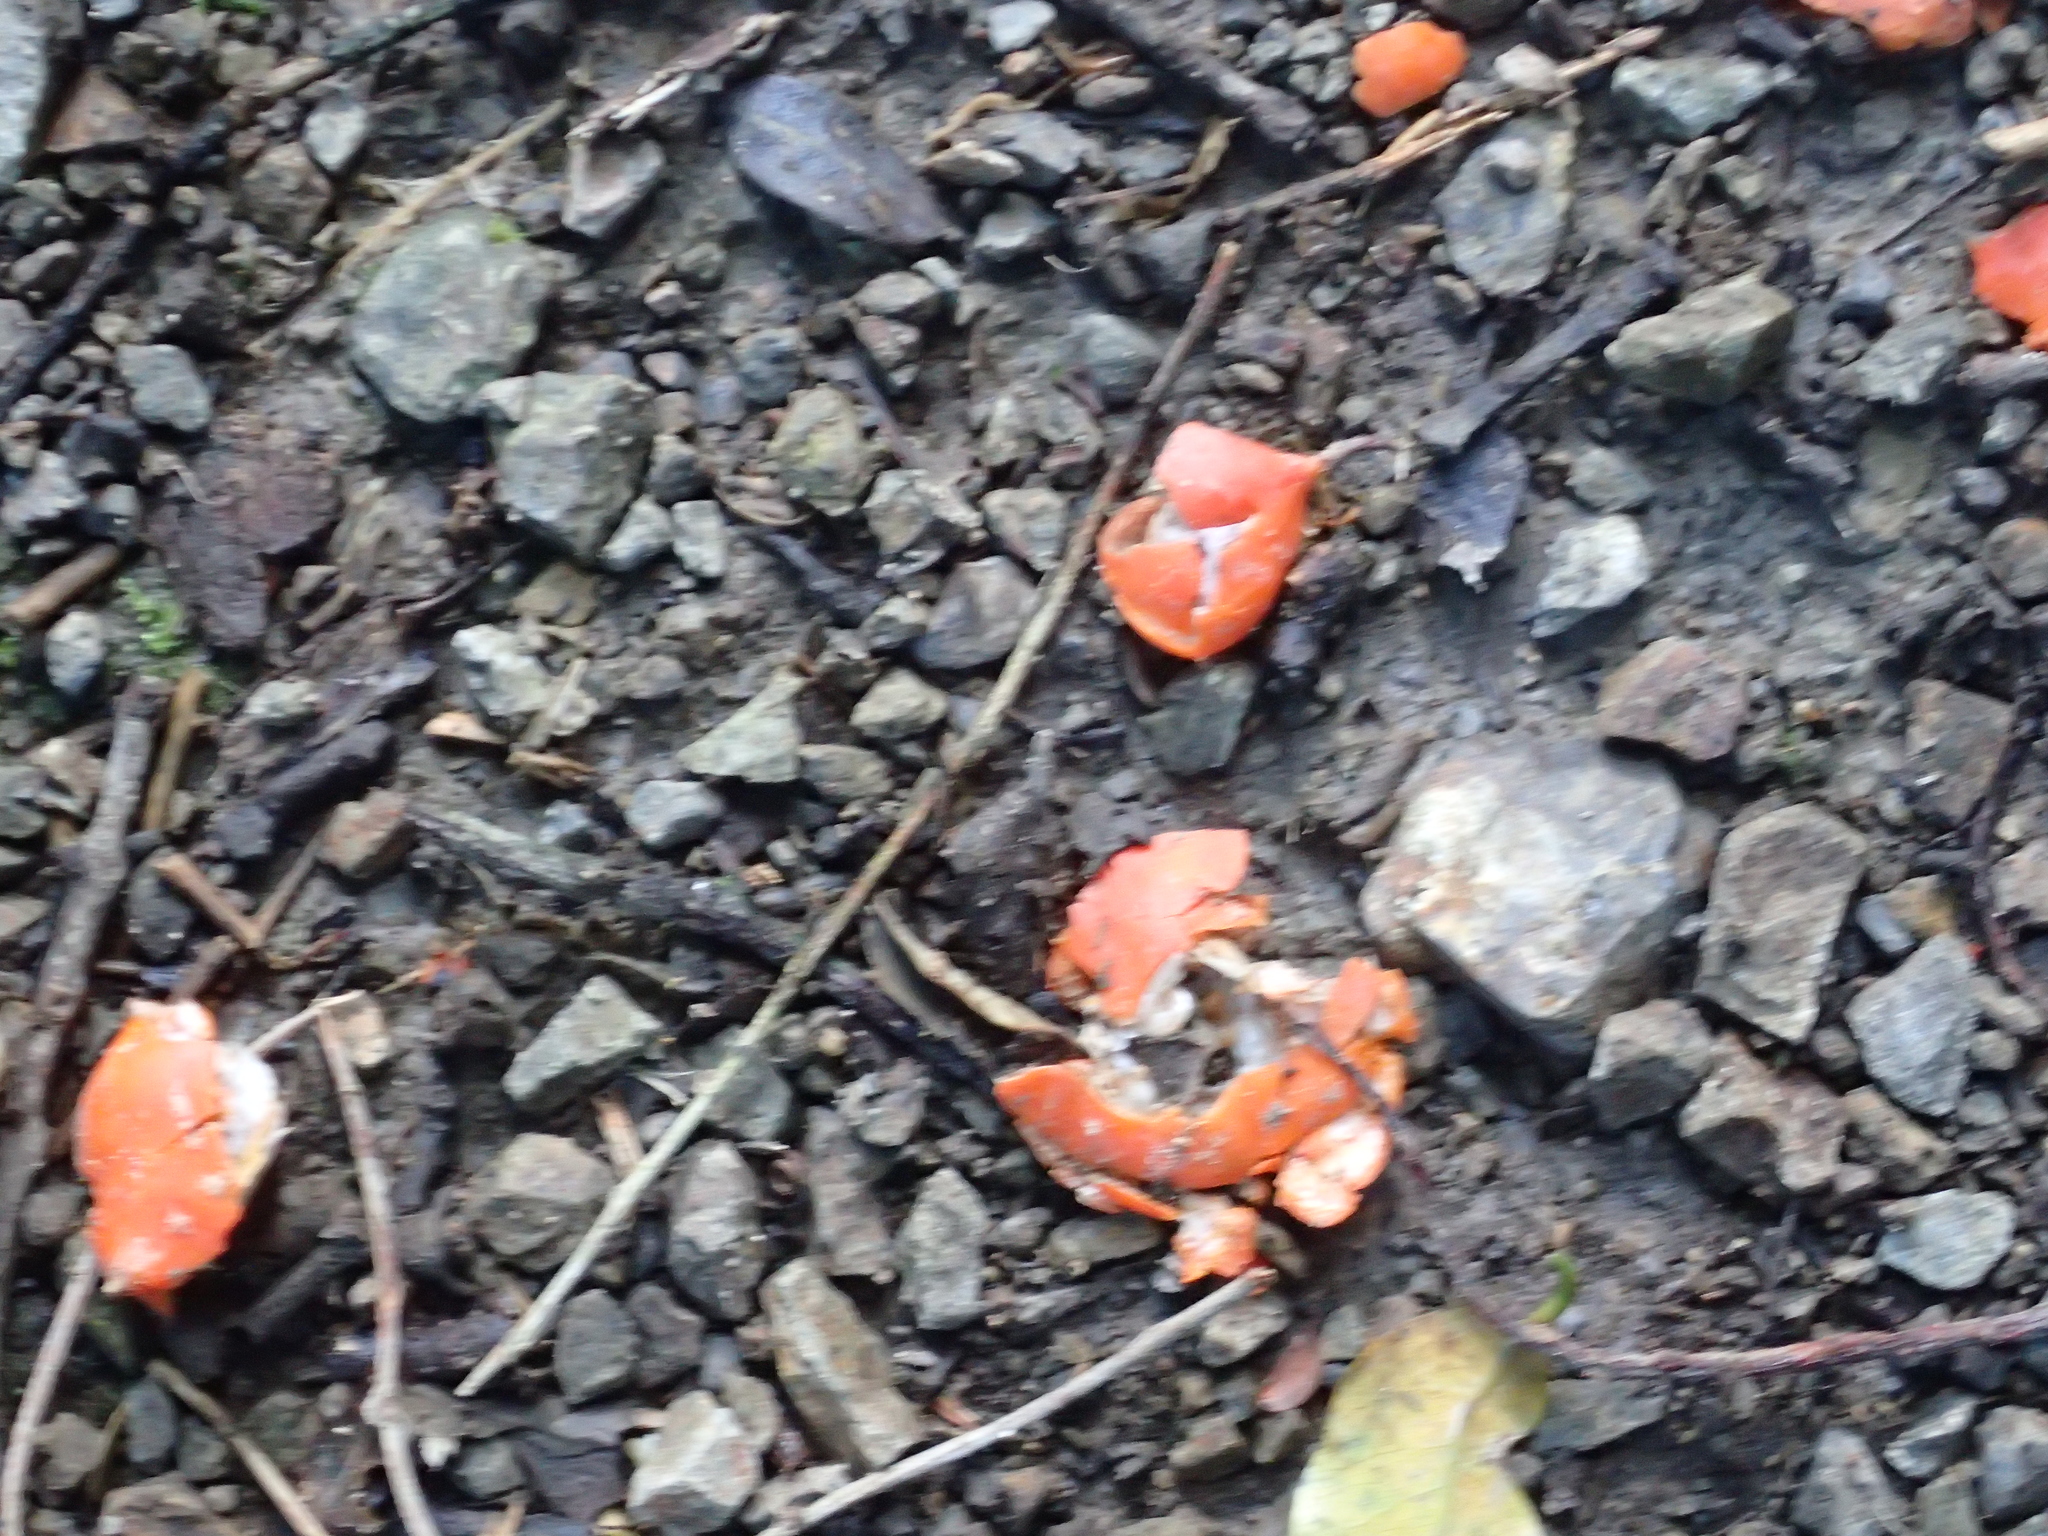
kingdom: Plantae
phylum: Tracheophyta
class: Magnoliopsida
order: Malpighiales
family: Passifloraceae
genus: Passiflora
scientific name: Passiflora tetrandra
